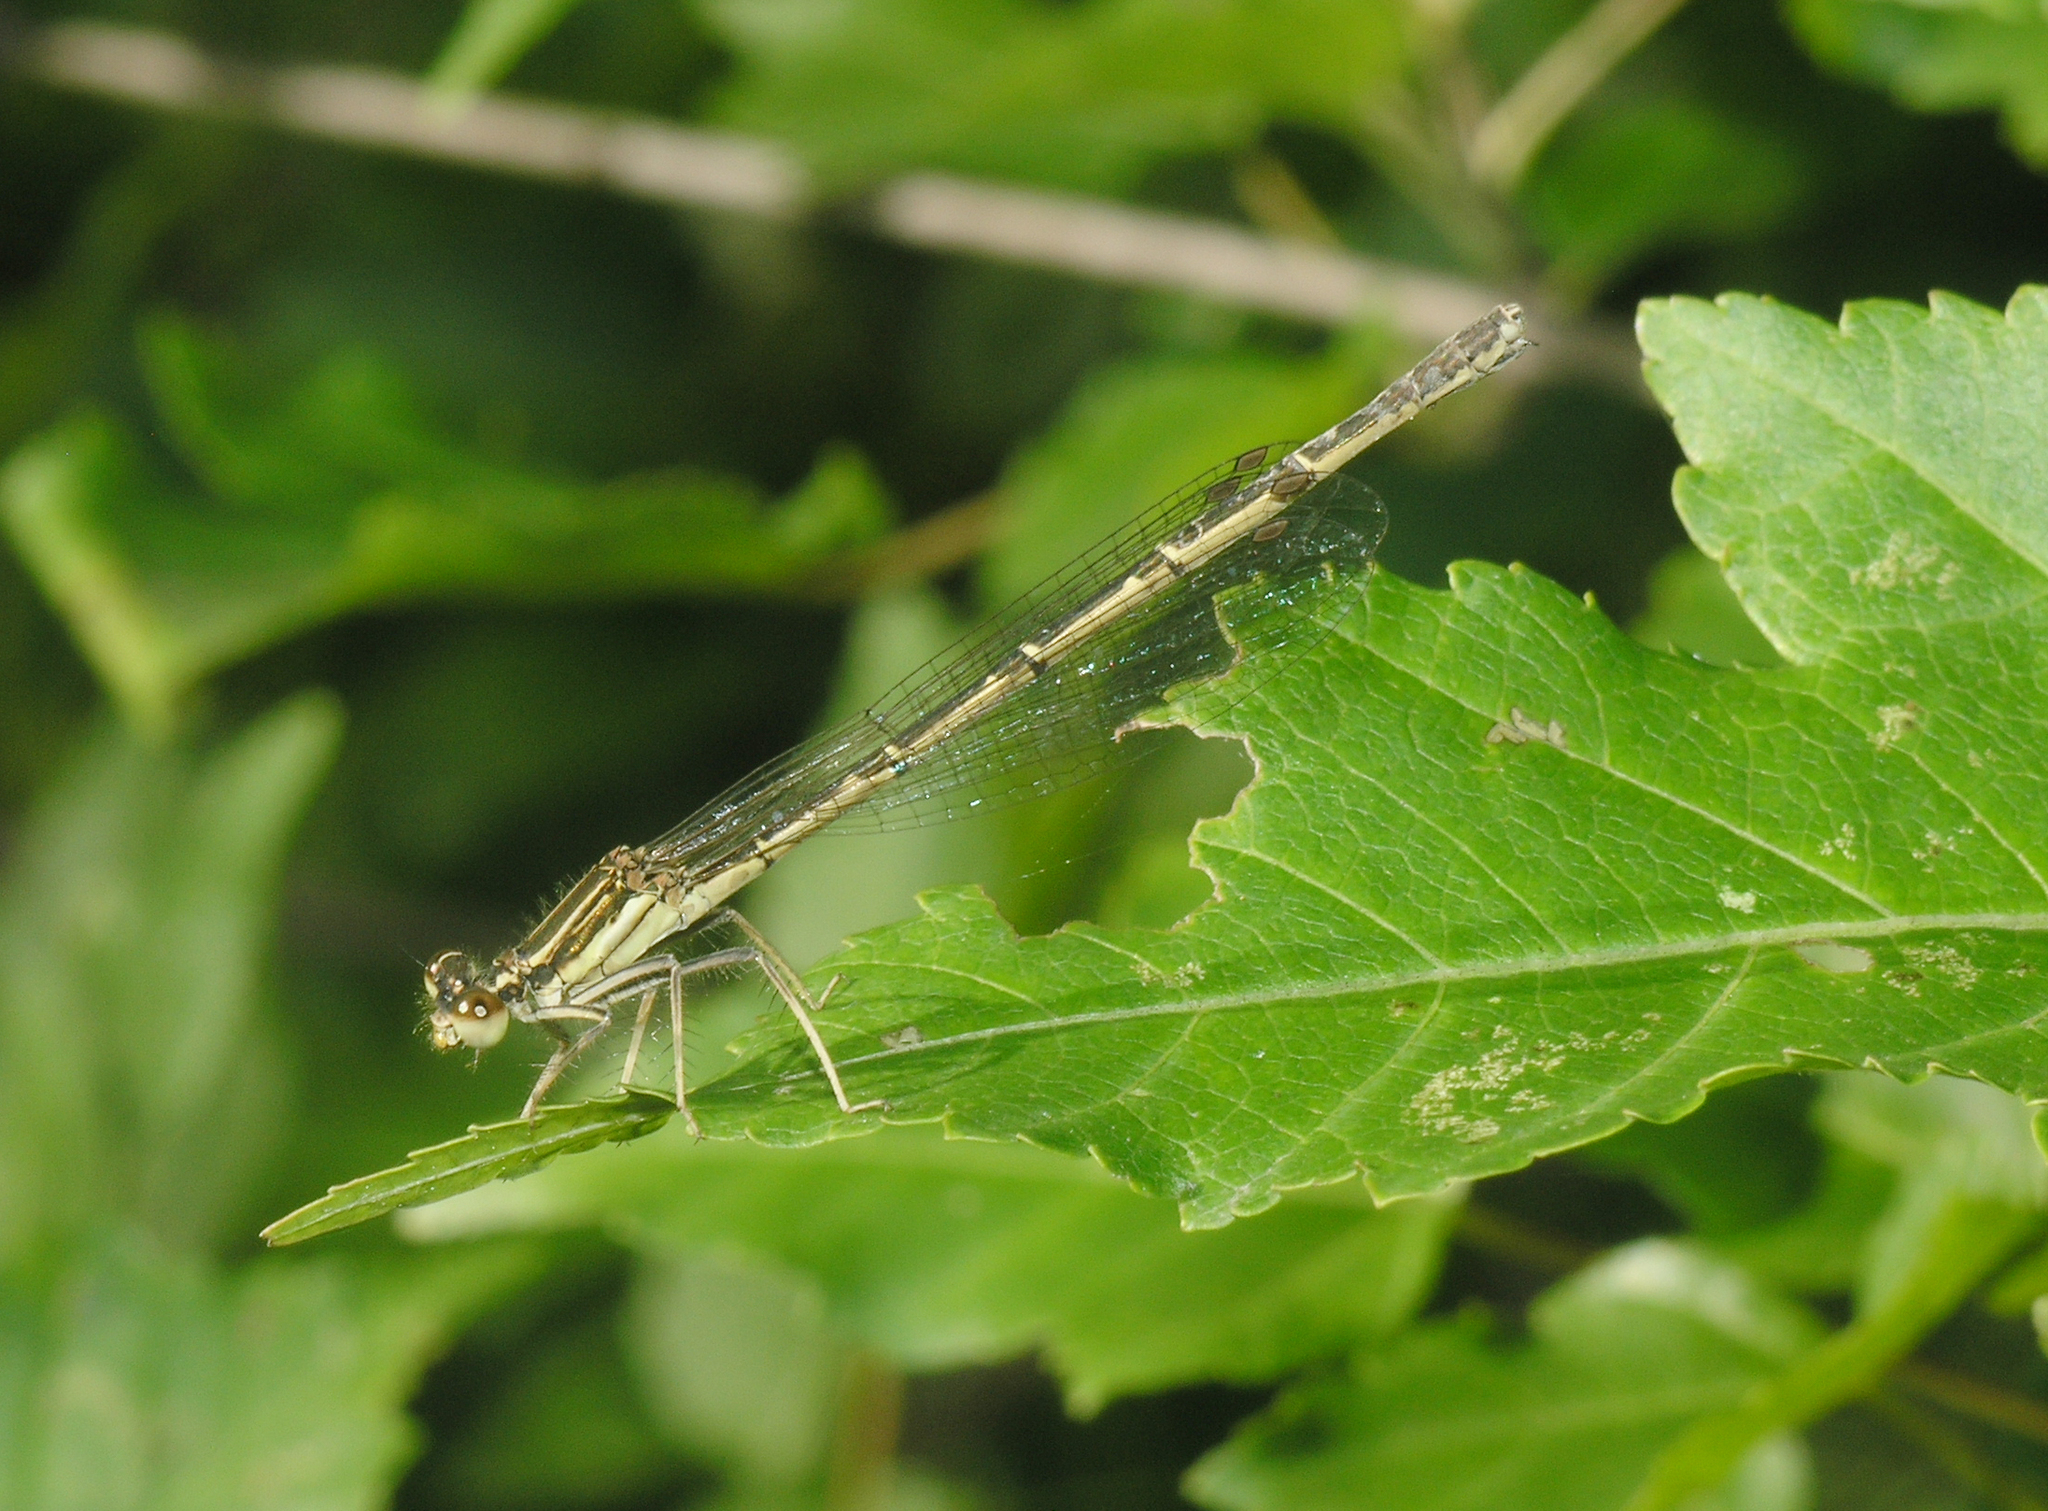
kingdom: Animalia
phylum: Arthropoda
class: Insecta
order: Odonata
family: Platycnemididae
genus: Platycnemis
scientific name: Platycnemis phyllopoda
